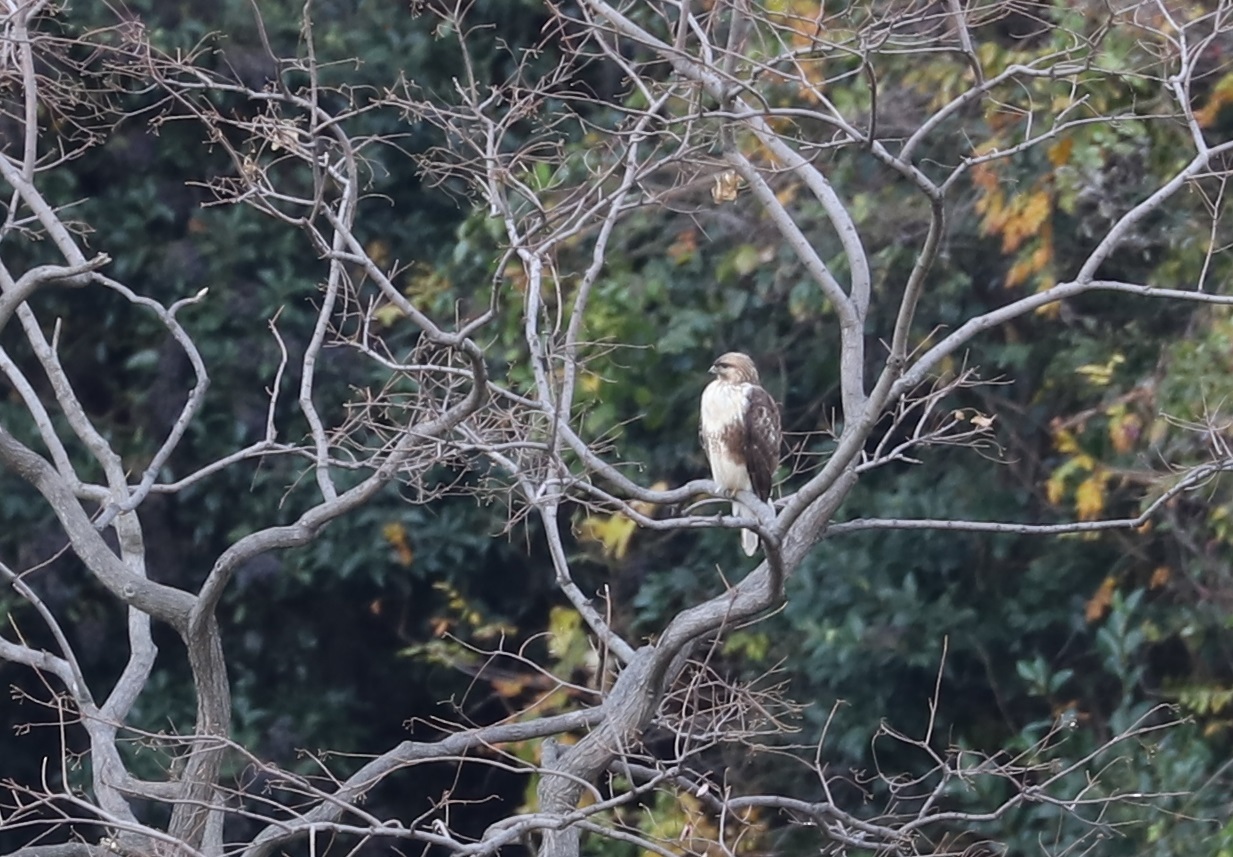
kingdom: Animalia
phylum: Chordata
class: Aves
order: Accipitriformes
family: Accipitridae
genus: Buteo
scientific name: Buteo japonicus
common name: Eastern buzzard
